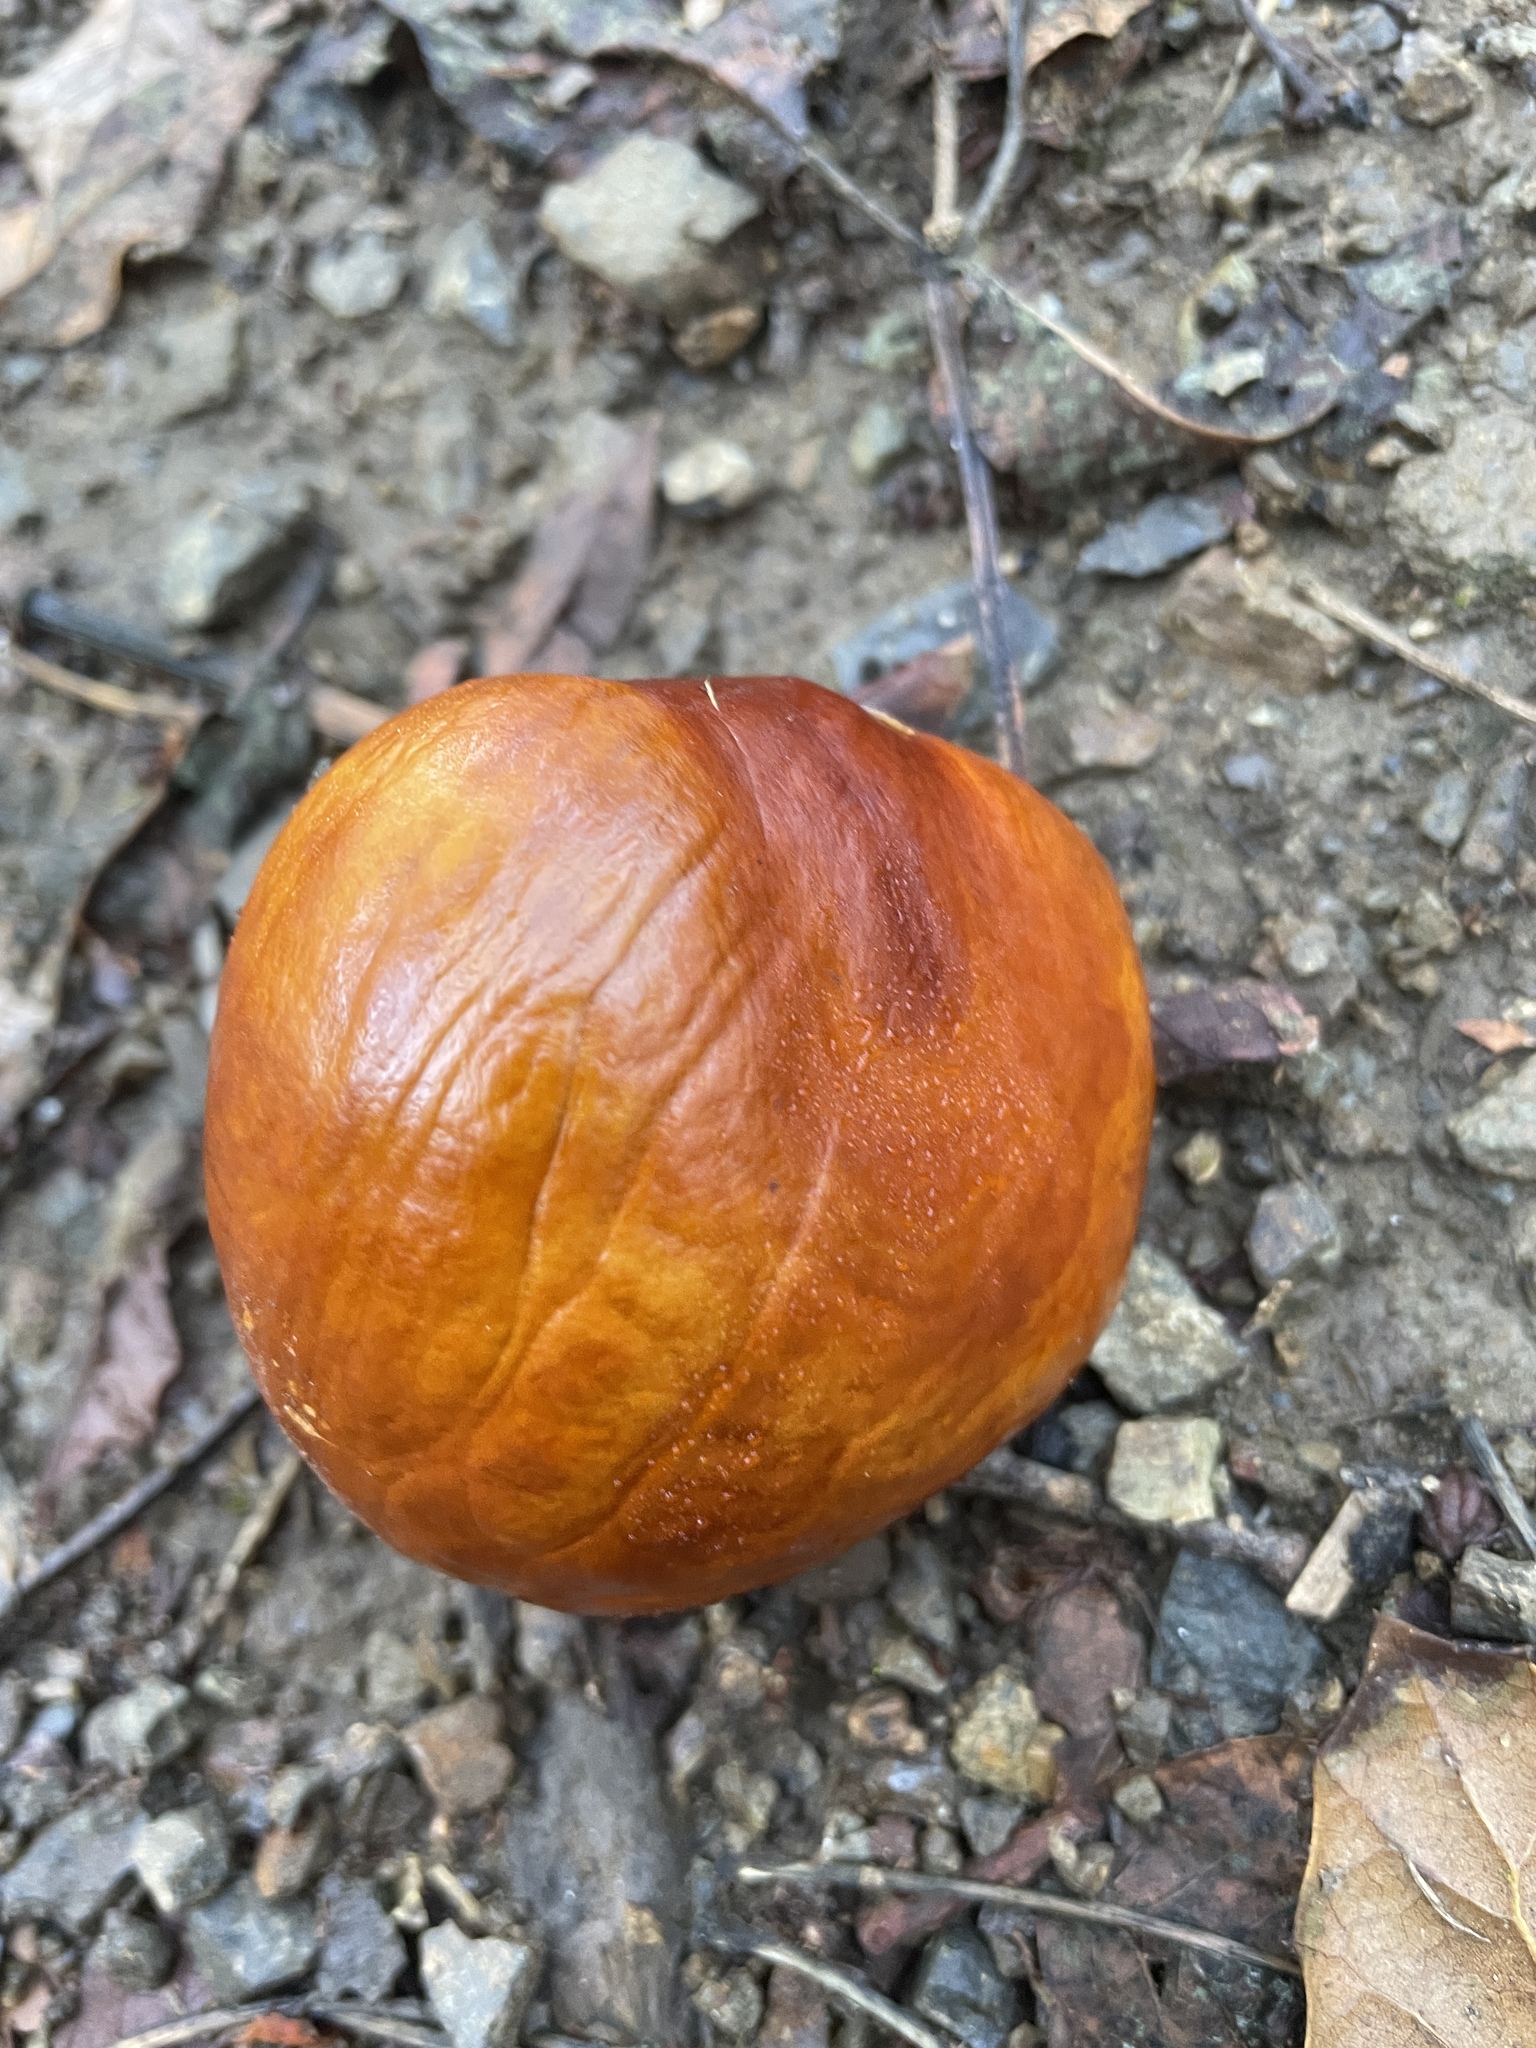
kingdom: Plantae
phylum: Tracheophyta
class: Magnoliopsida
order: Sapindales
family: Sapindaceae
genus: Aesculus
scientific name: Aesculus californica
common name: California buckeye
